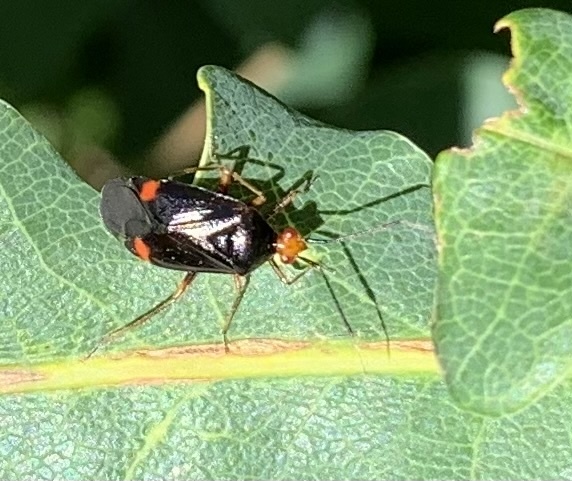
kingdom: Animalia
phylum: Arthropoda
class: Insecta
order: Hemiptera
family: Miridae
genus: Deraeocoris
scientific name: Deraeocoris ruber
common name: Plant bug
